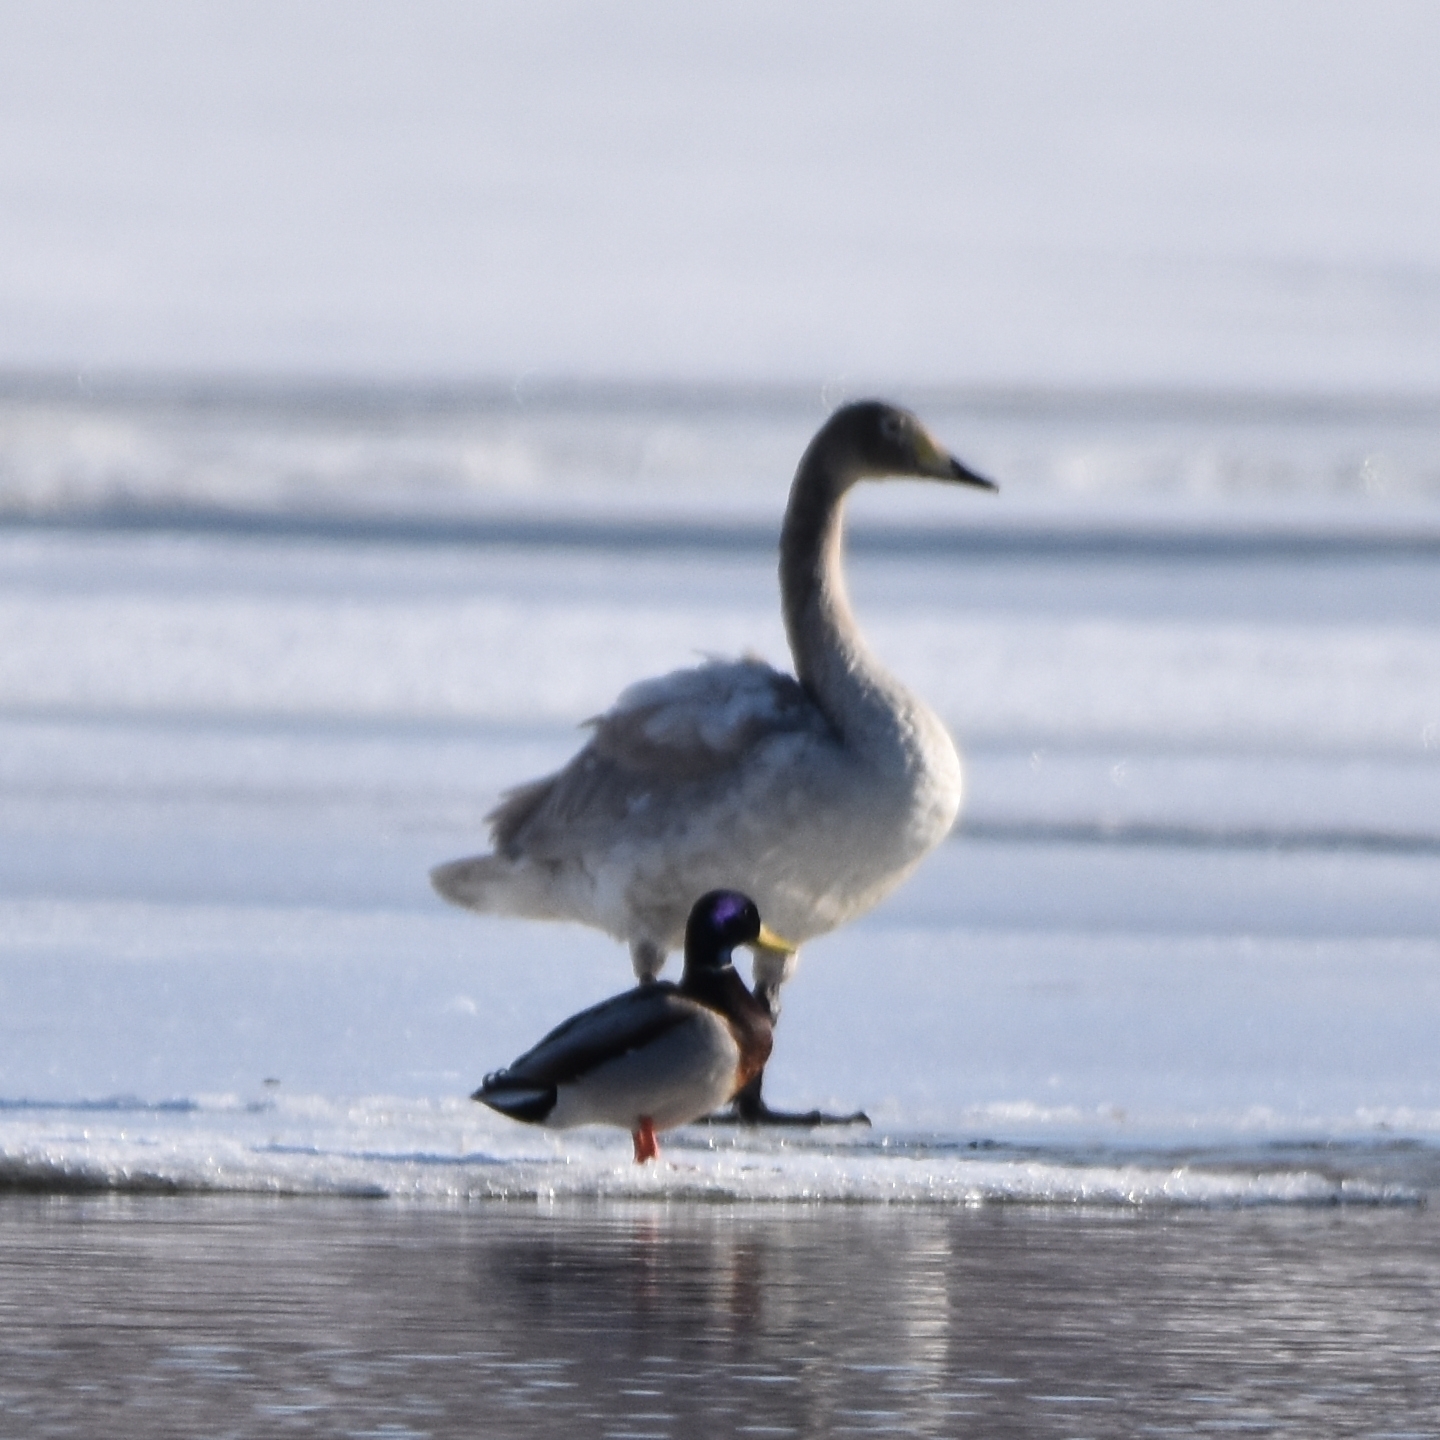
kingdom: Animalia
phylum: Chordata
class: Aves
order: Anseriformes
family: Anatidae
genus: Cygnus
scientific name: Cygnus cygnus
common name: Whooper swan
